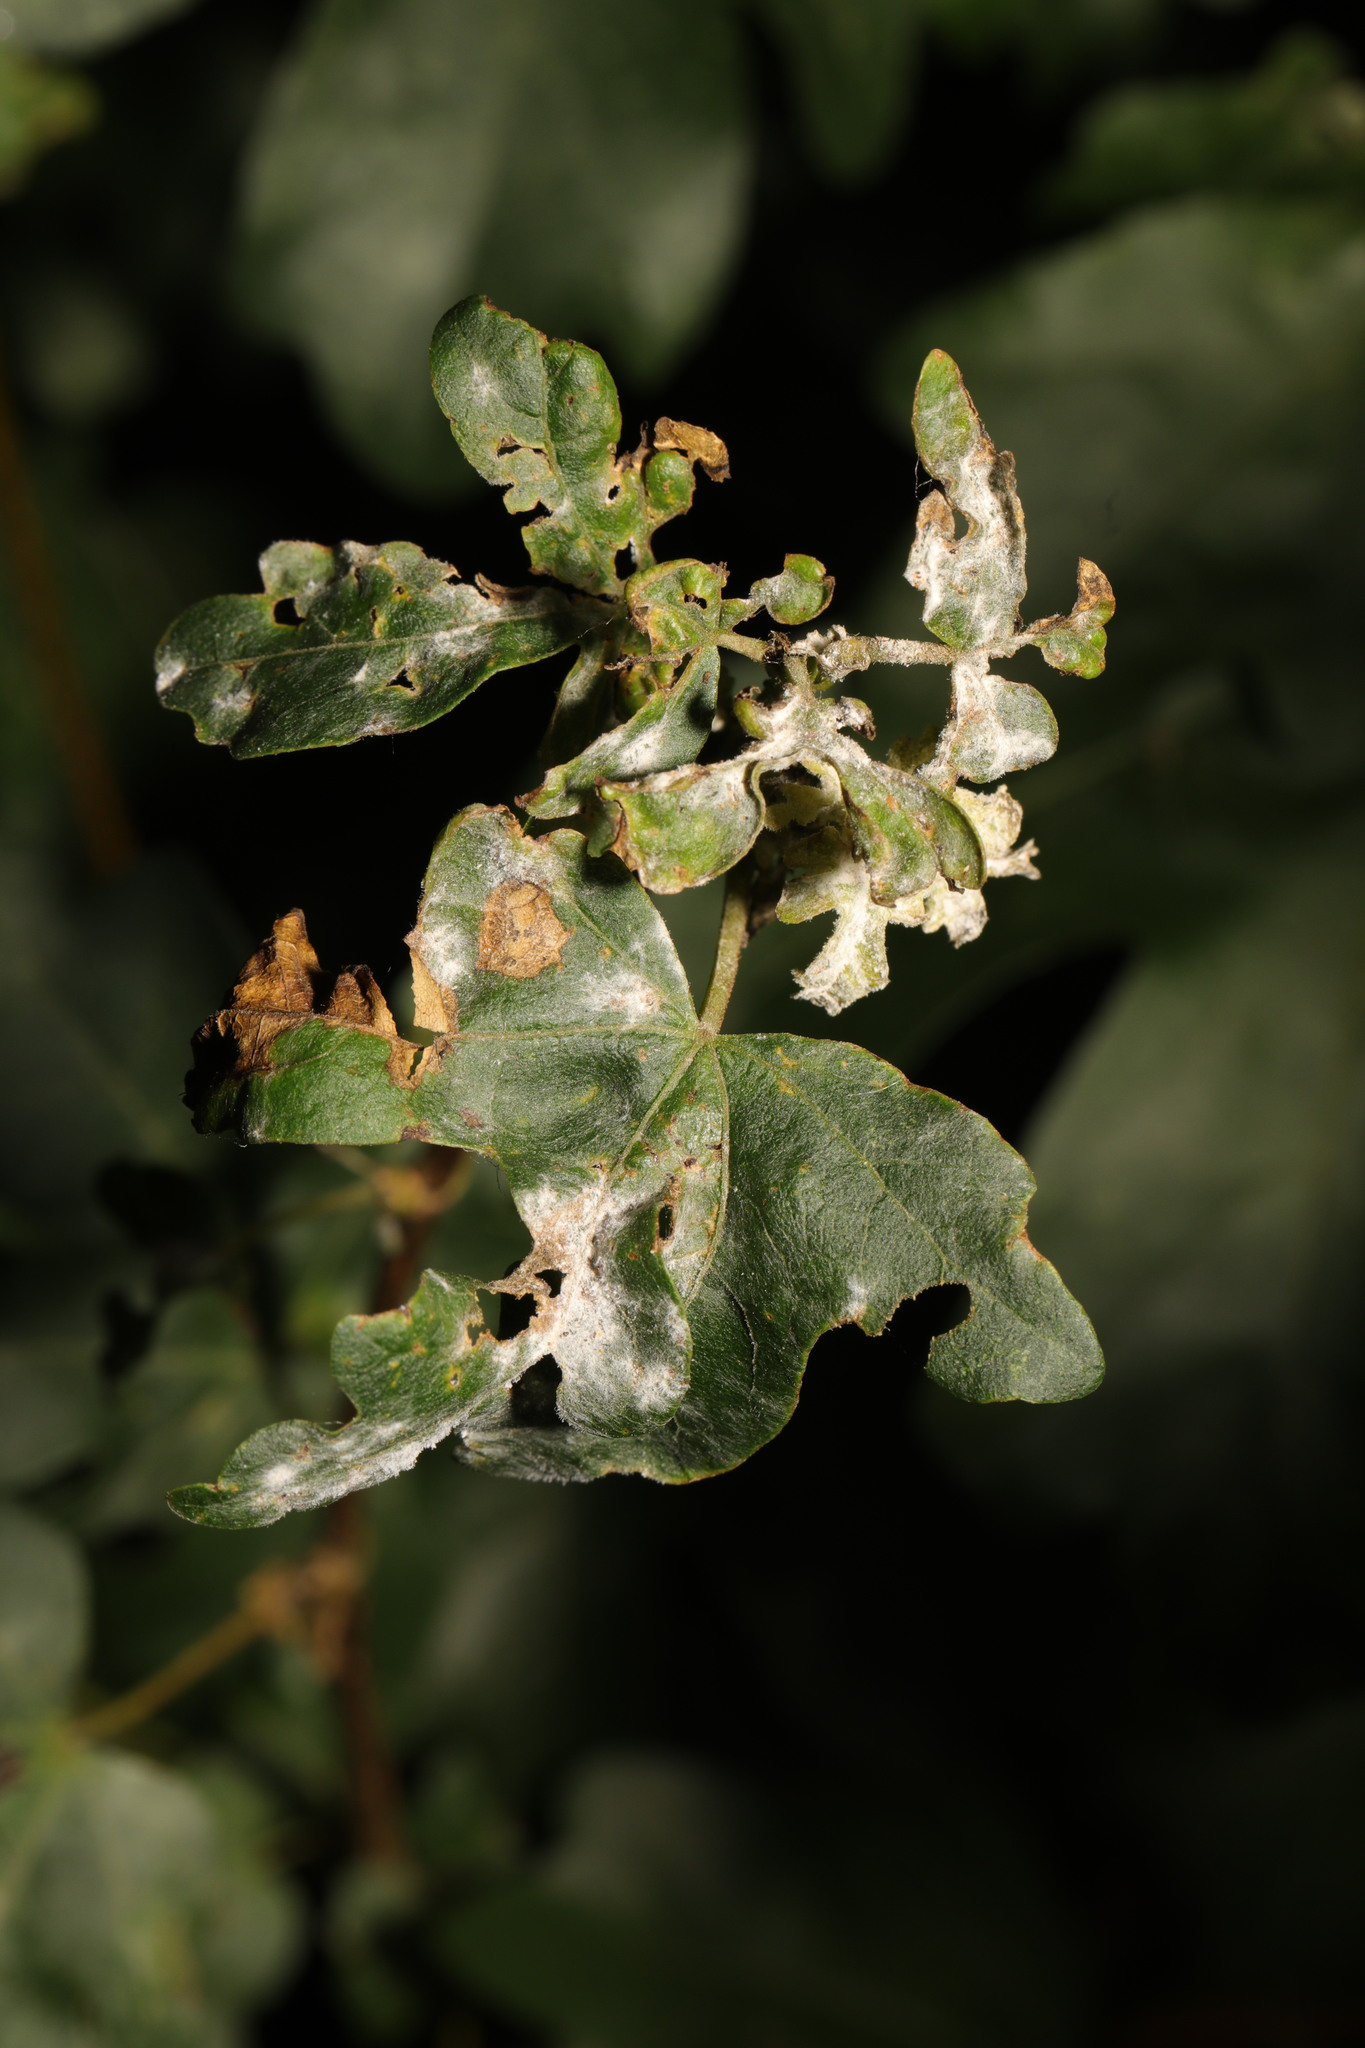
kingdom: Fungi
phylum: Ascomycota
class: Leotiomycetes
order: Helotiales
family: Erysiphaceae
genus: Sawadaea
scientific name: Sawadaea bicornis
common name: Maple mildew
